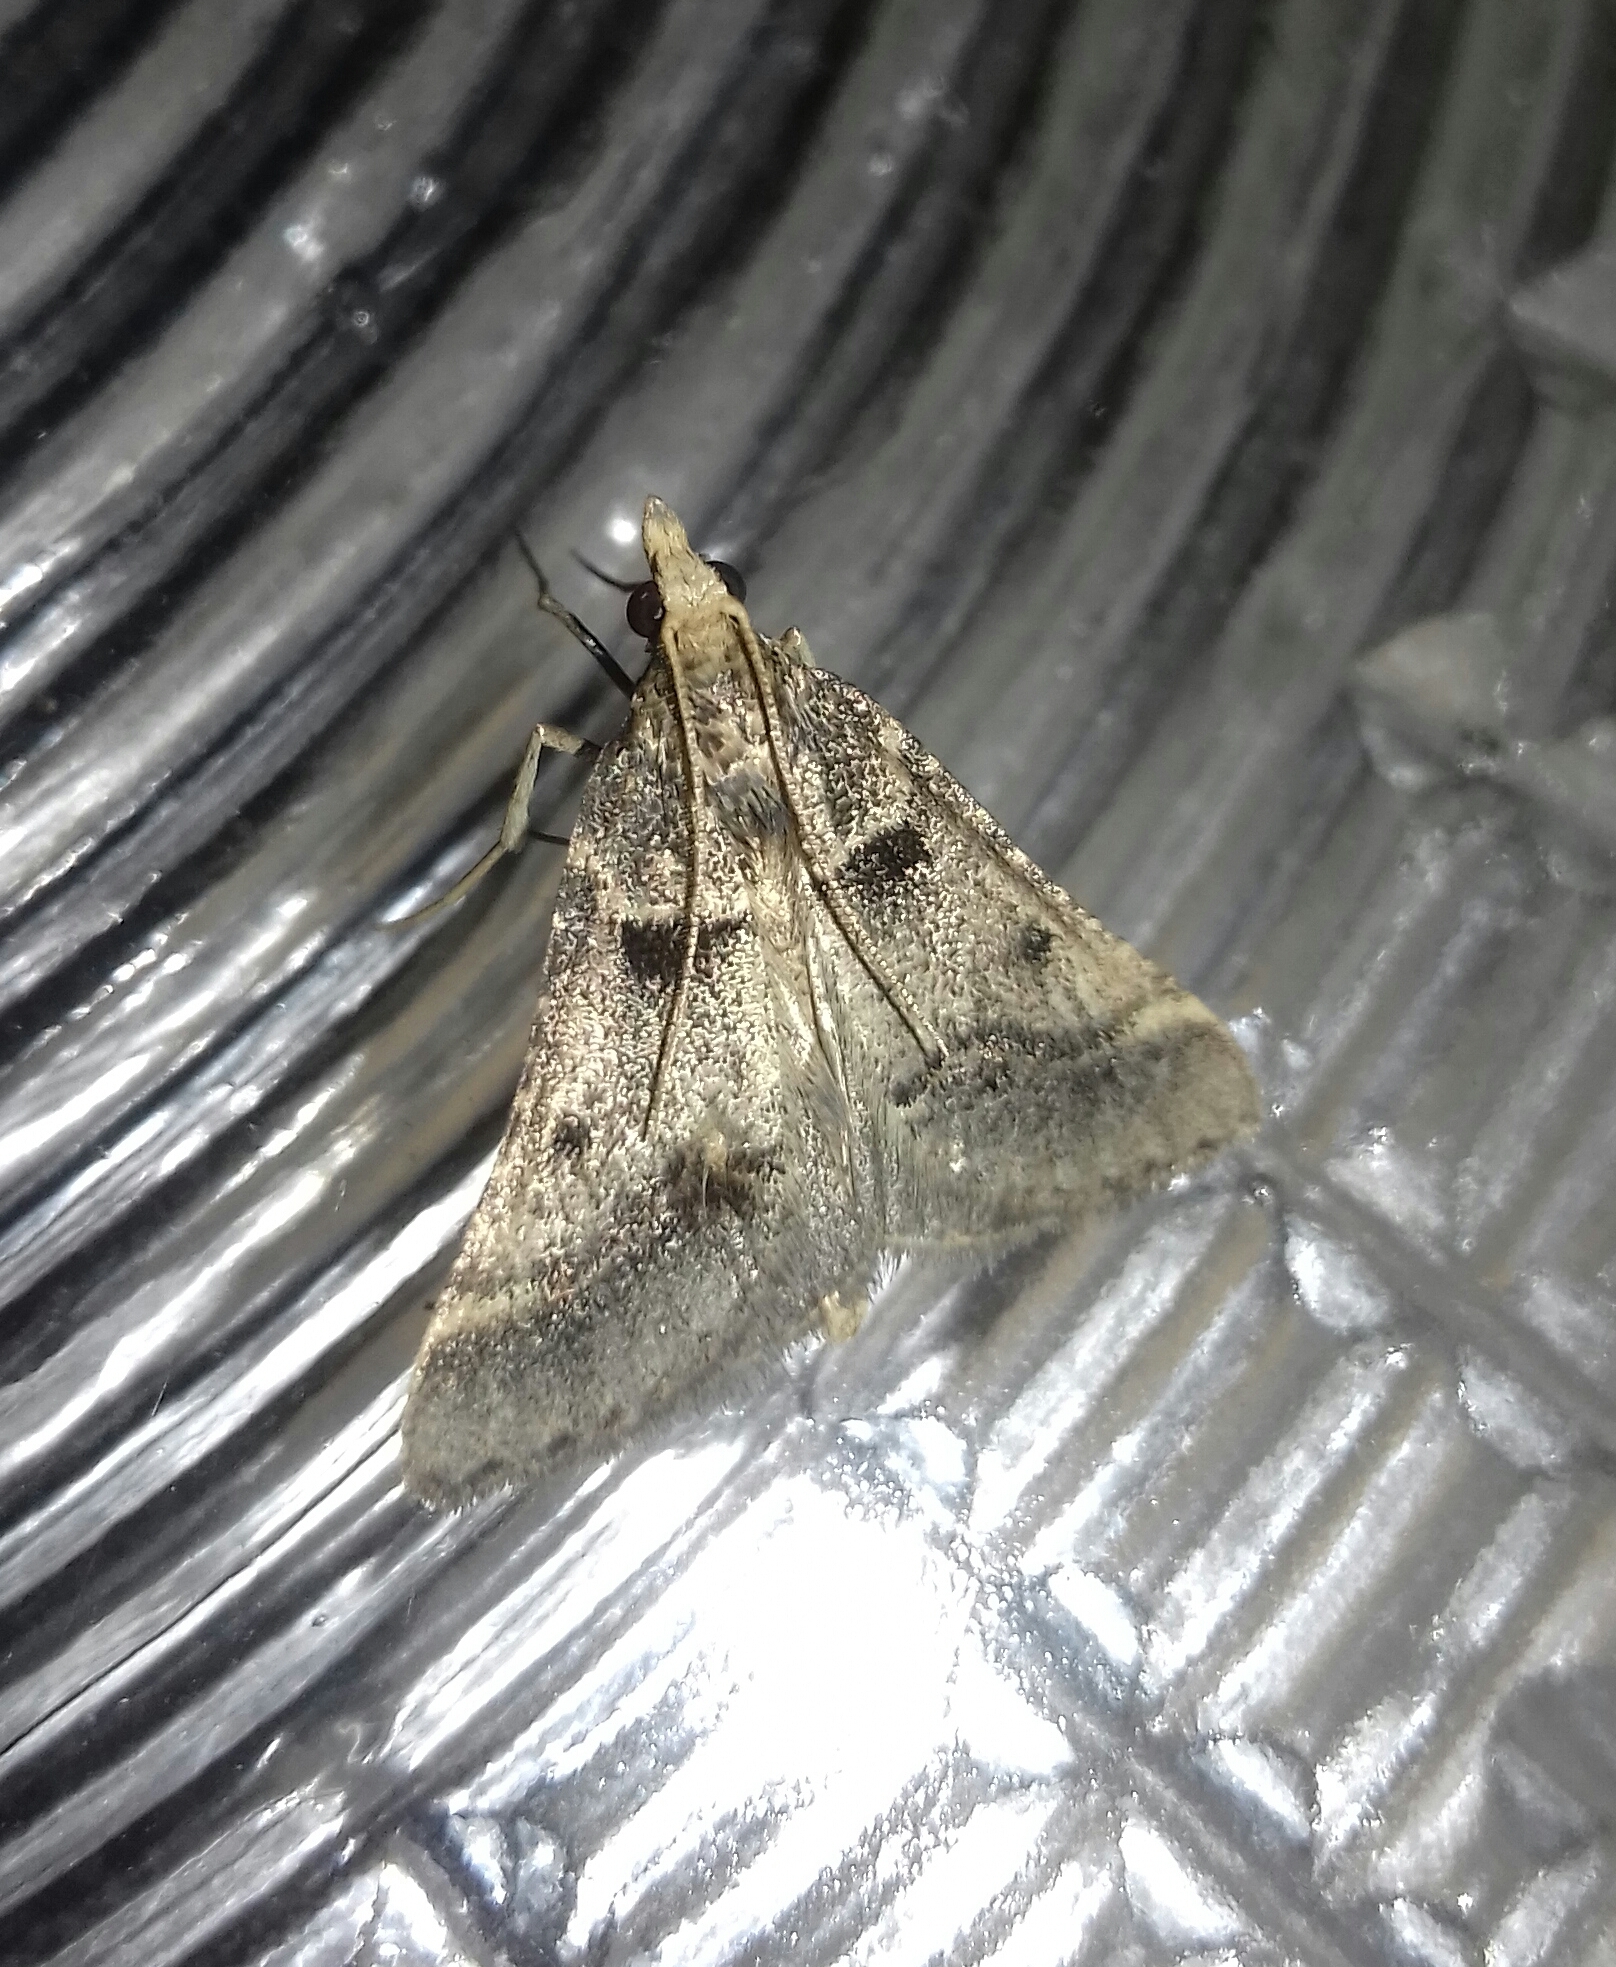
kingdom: Animalia
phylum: Arthropoda
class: Insecta
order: Lepidoptera
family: Pyralidae
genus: Stemmatophora
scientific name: Stemmatophora brunnealis
